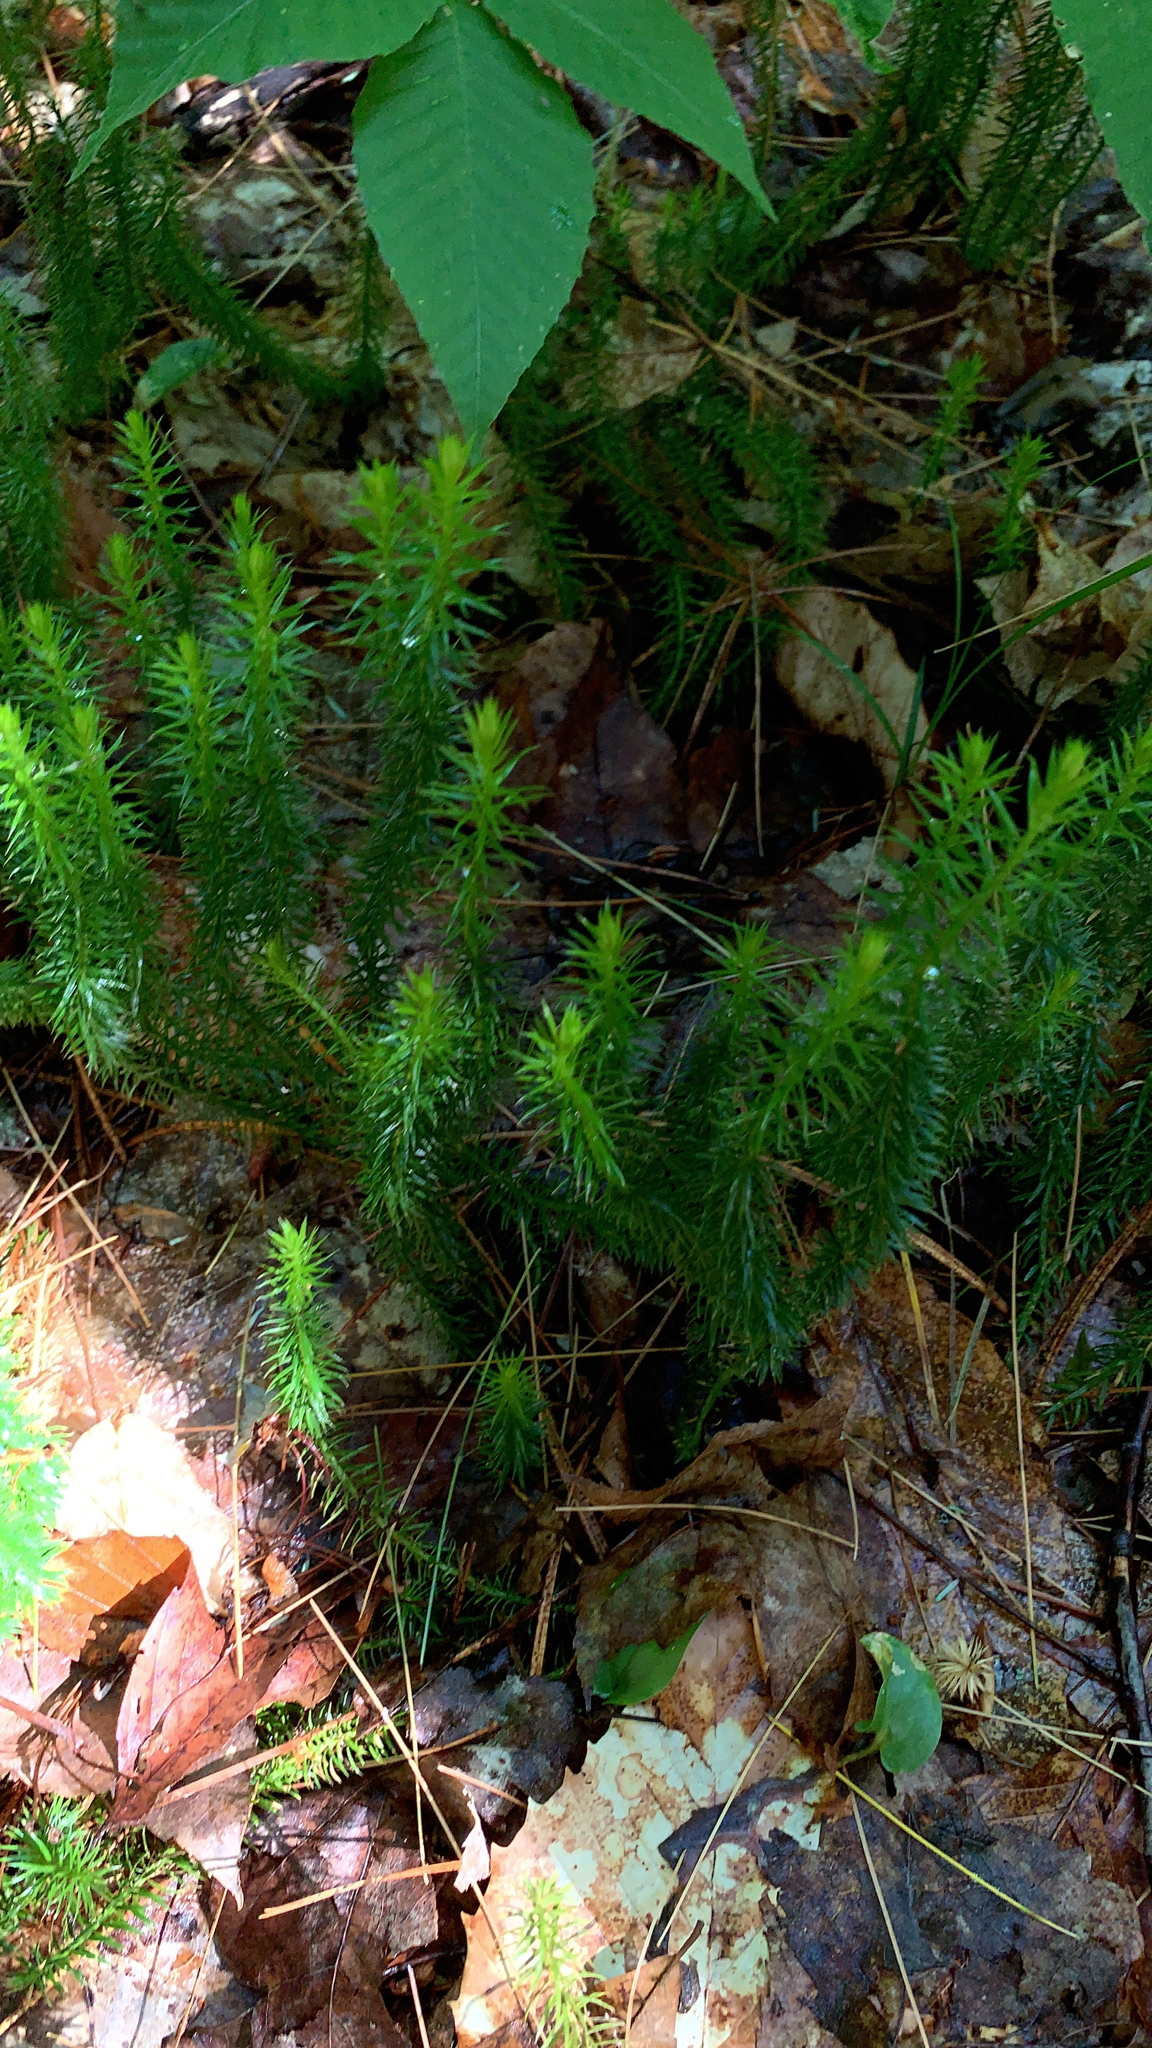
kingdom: Plantae
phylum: Tracheophyta
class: Lycopodiopsida
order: Lycopodiales
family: Lycopodiaceae
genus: Spinulum
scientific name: Spinulum annotinum
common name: Interrupted club-moss
